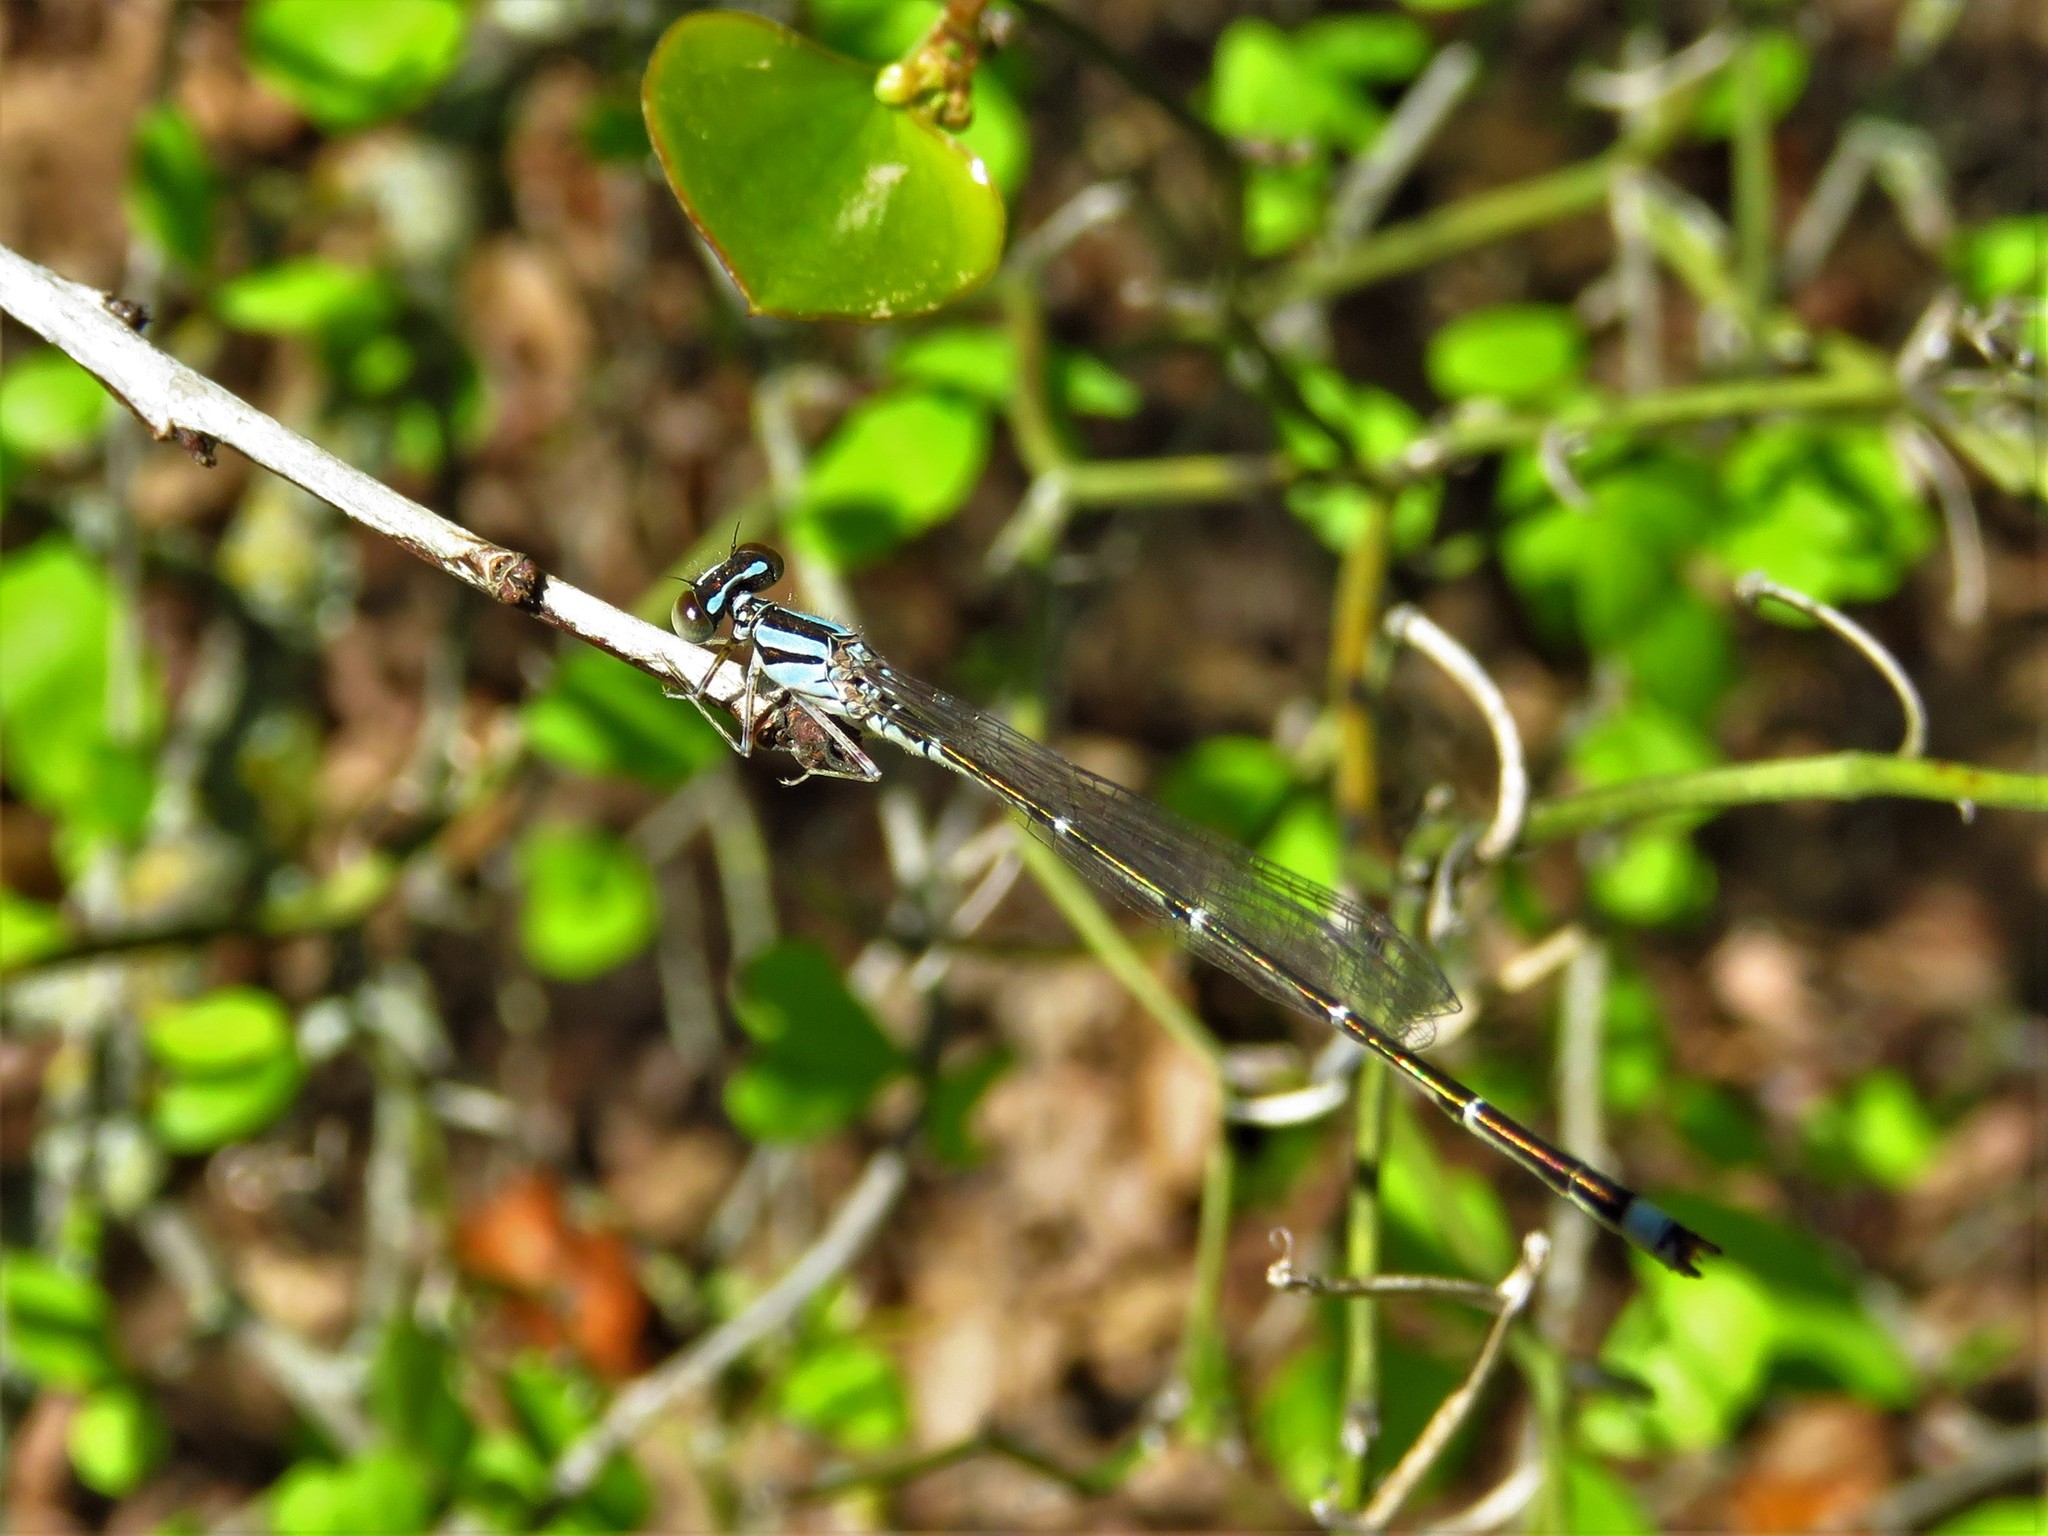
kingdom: Animalia
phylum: Arthropoda
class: Insecta
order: Odonata
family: Coenagrionidae
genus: Enallagma
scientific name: Enallagma signatum
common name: Orange bluet
